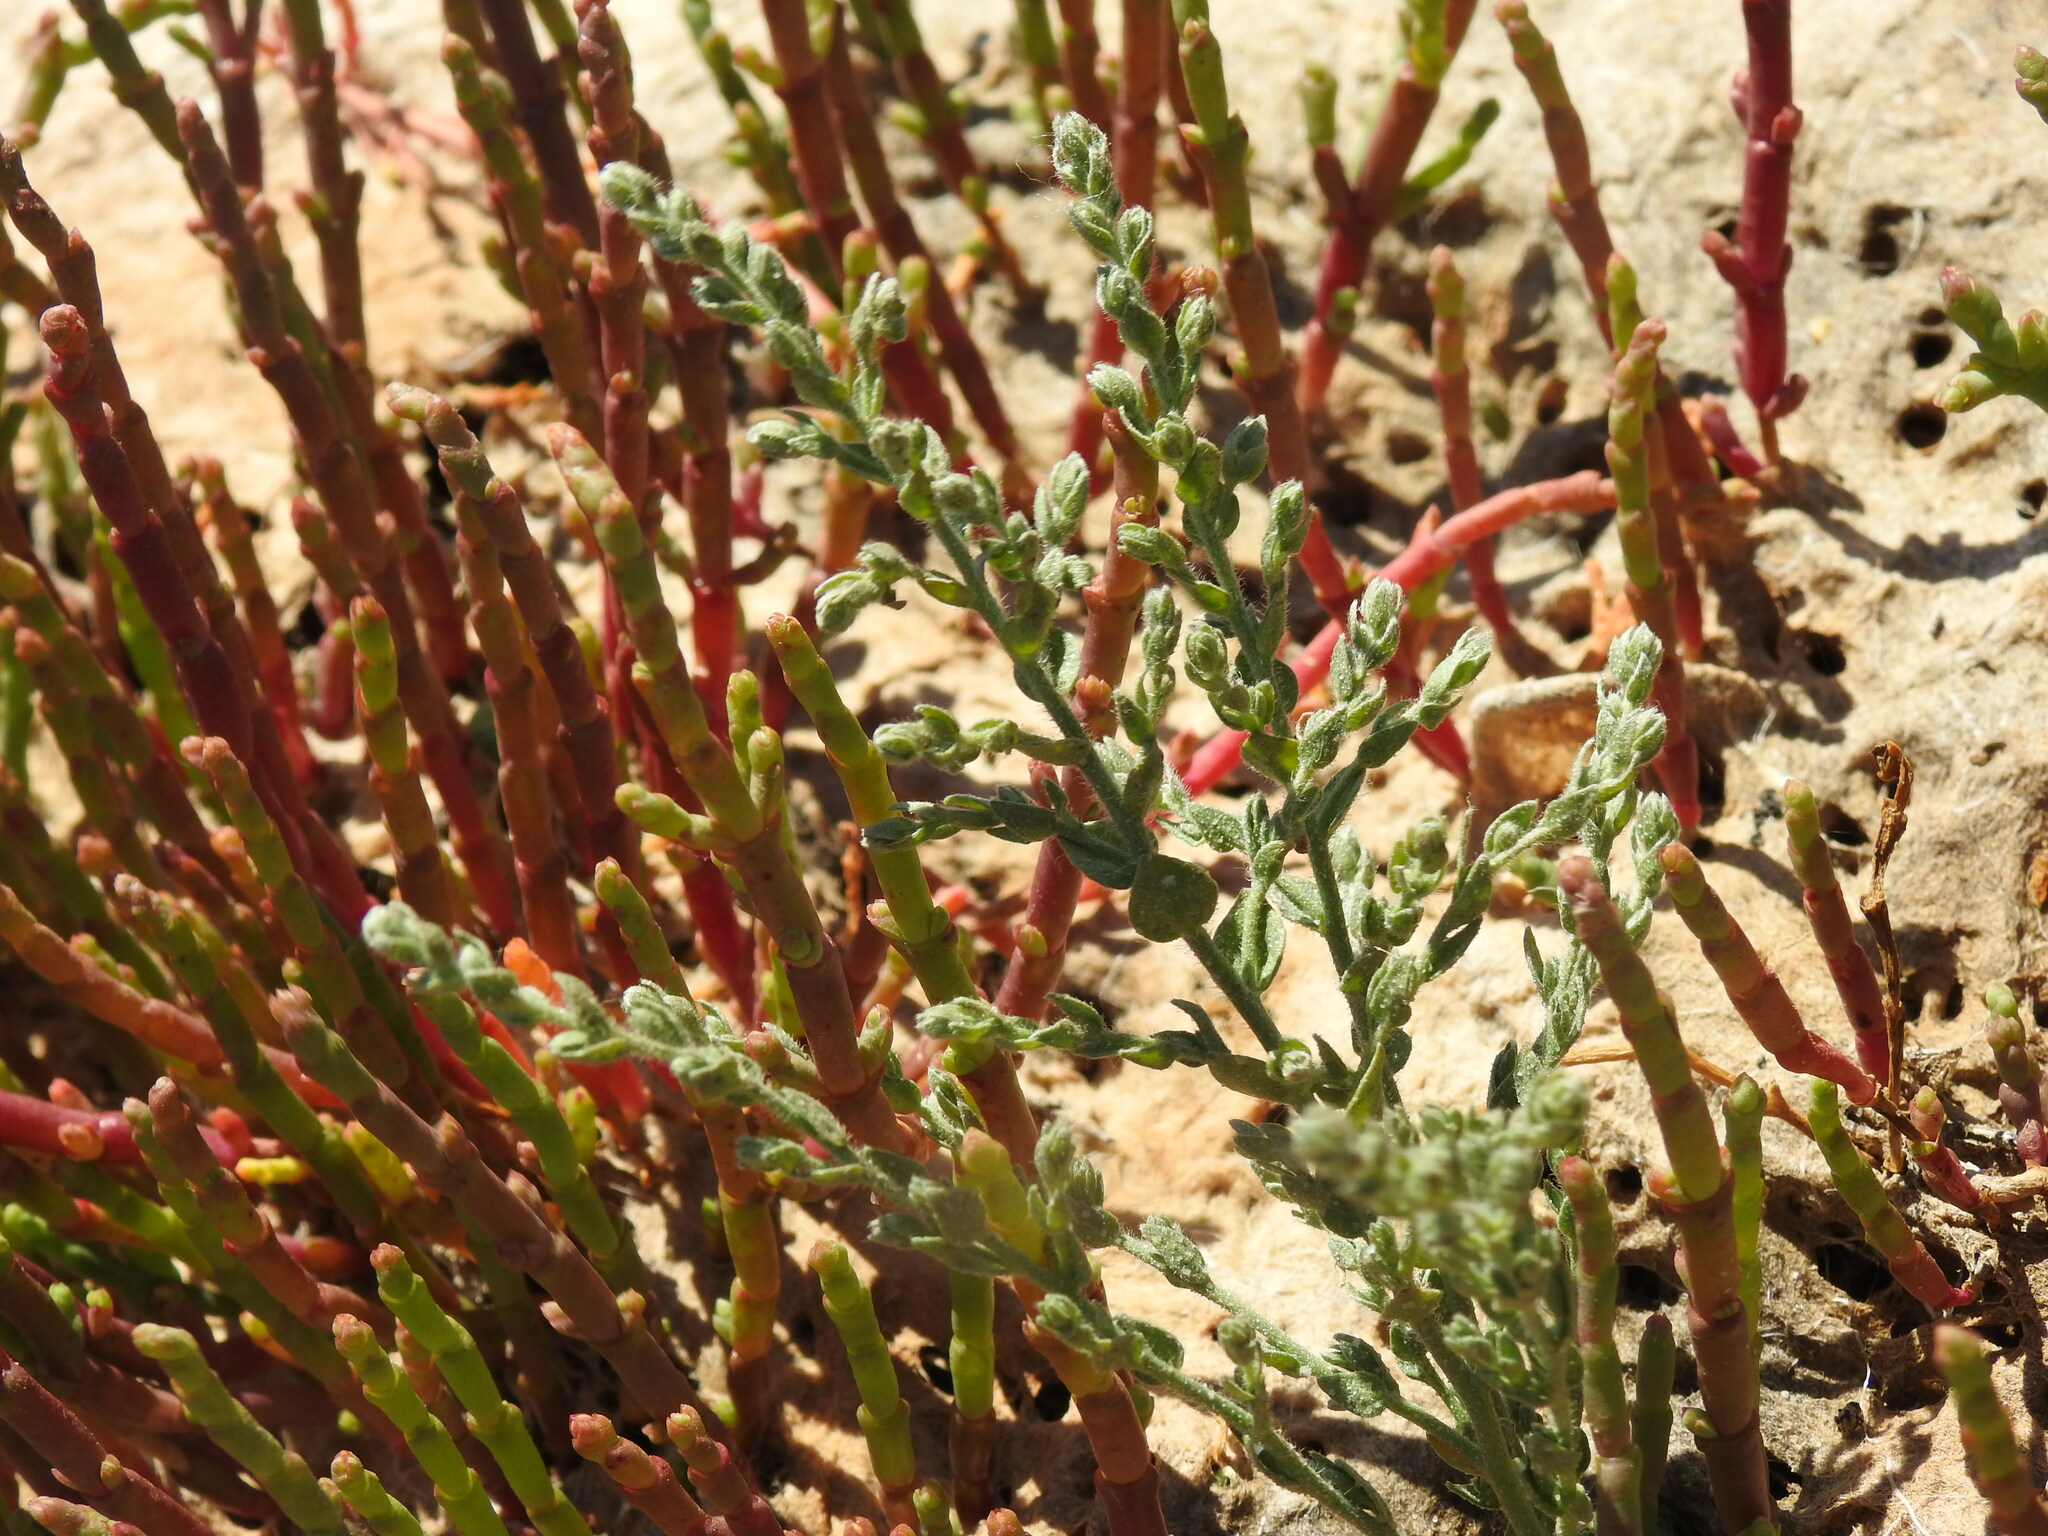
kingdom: Plantae
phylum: Tracheophyta
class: Magnoliopsida
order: Solanales
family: Convolvulaceae
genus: Cressa
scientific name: Cressa cretica
